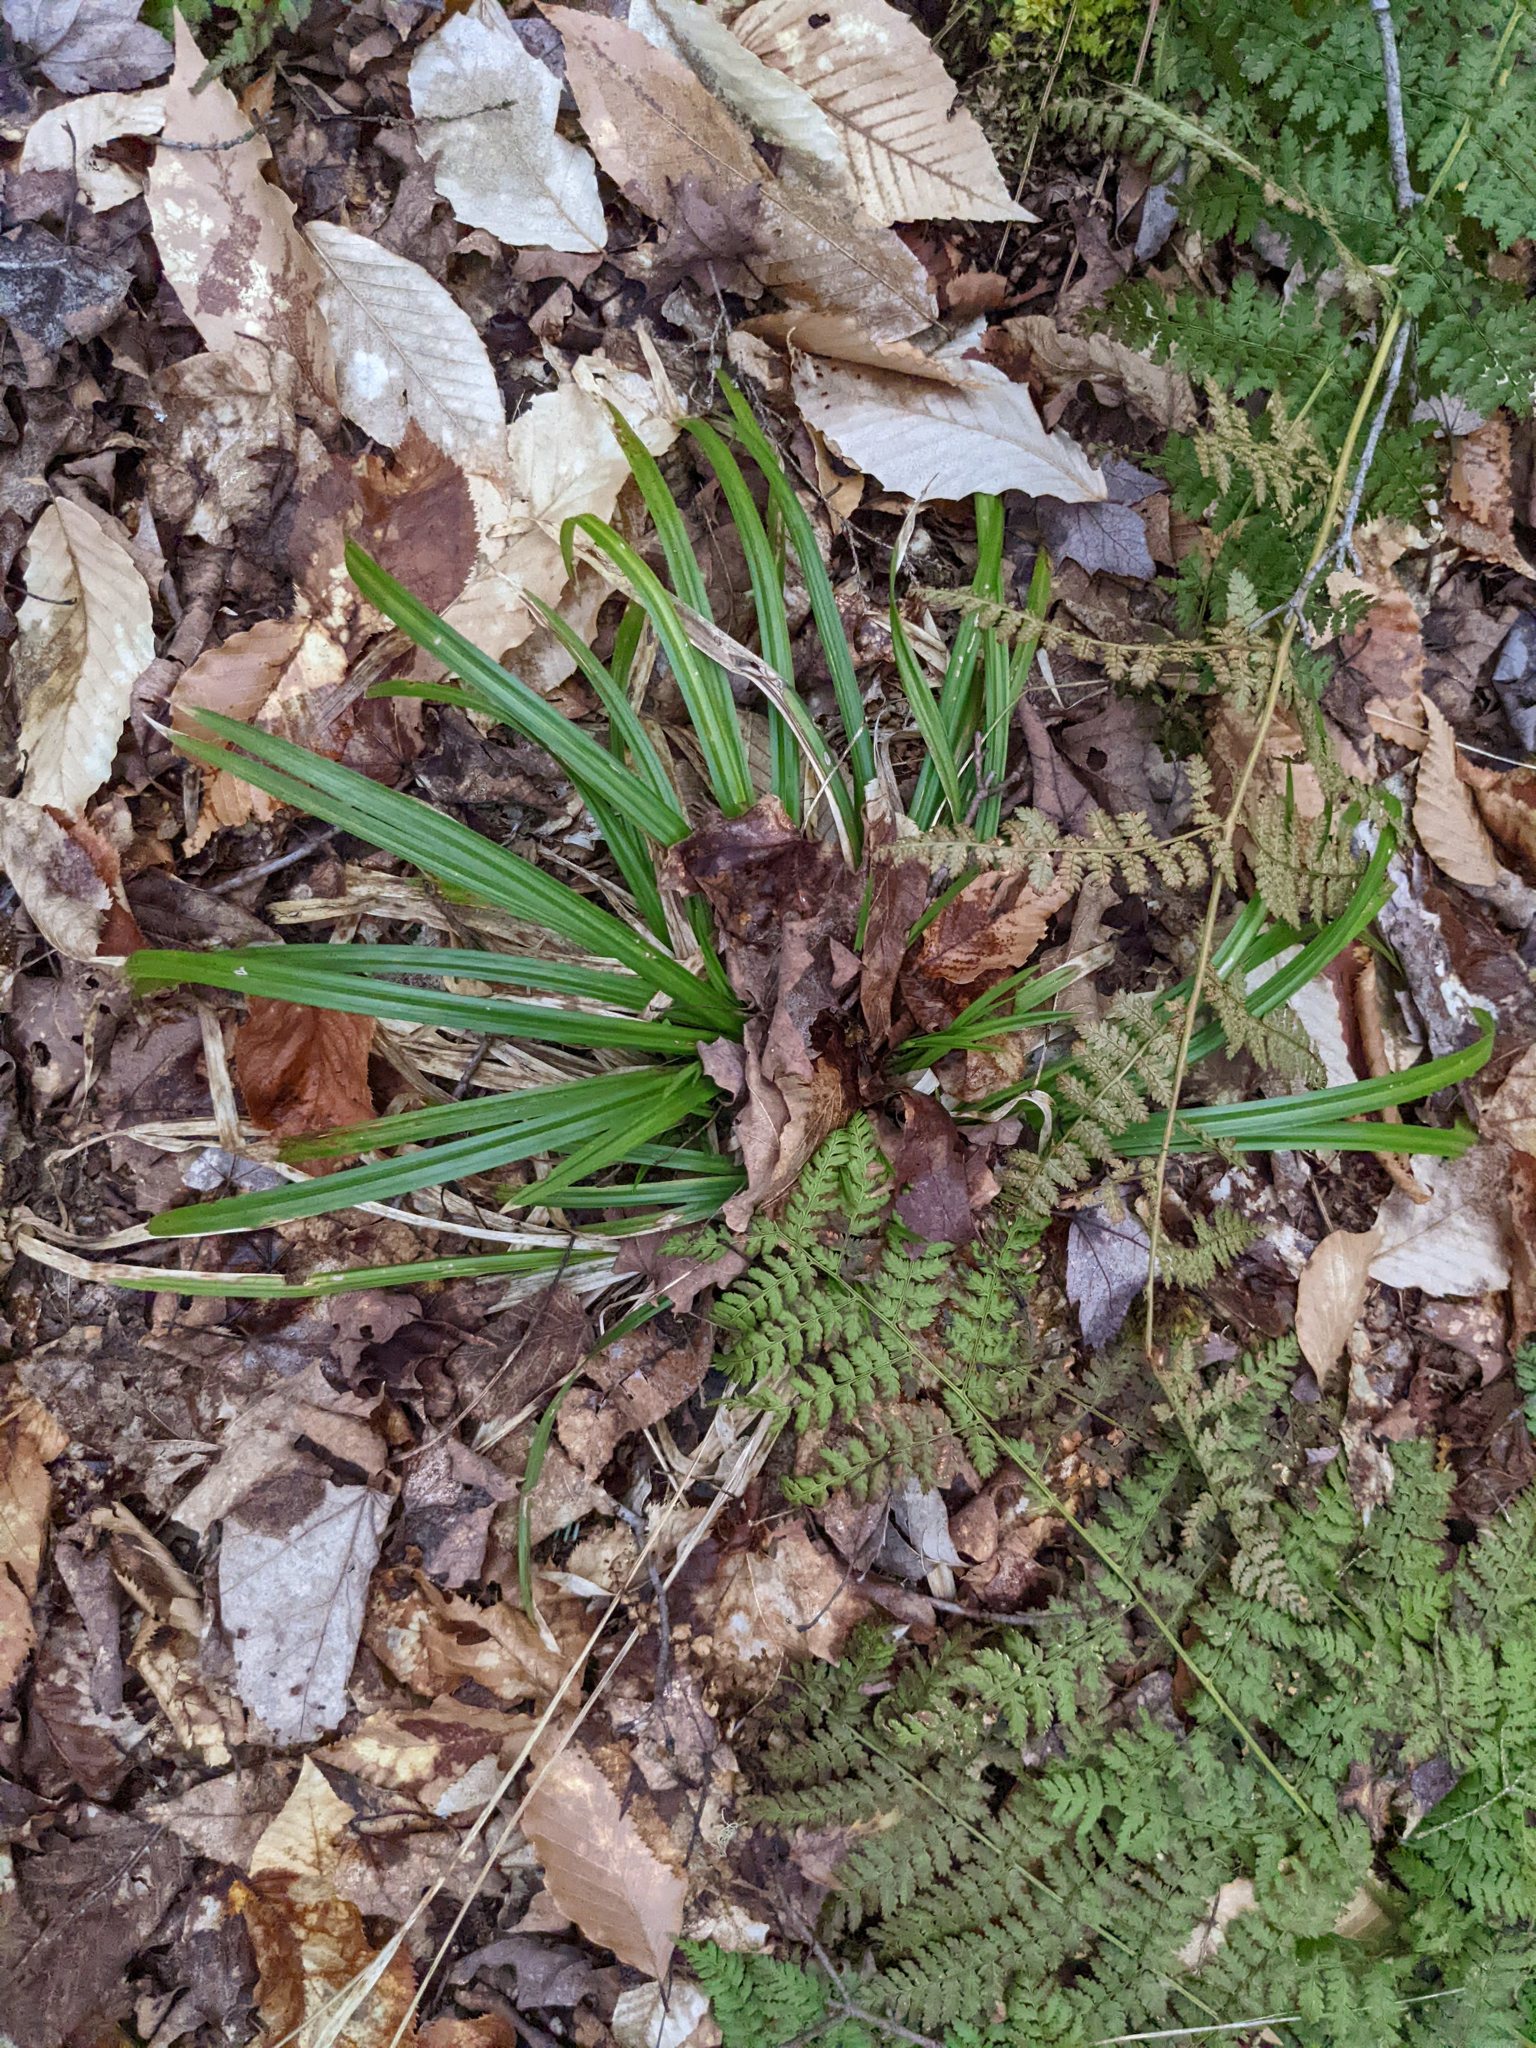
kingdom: Plantae
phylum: Tracheophyta
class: Magnoliopsida
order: Fagales
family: Fagaceae
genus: Fagus
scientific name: Fagus grandifolia
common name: American beech
